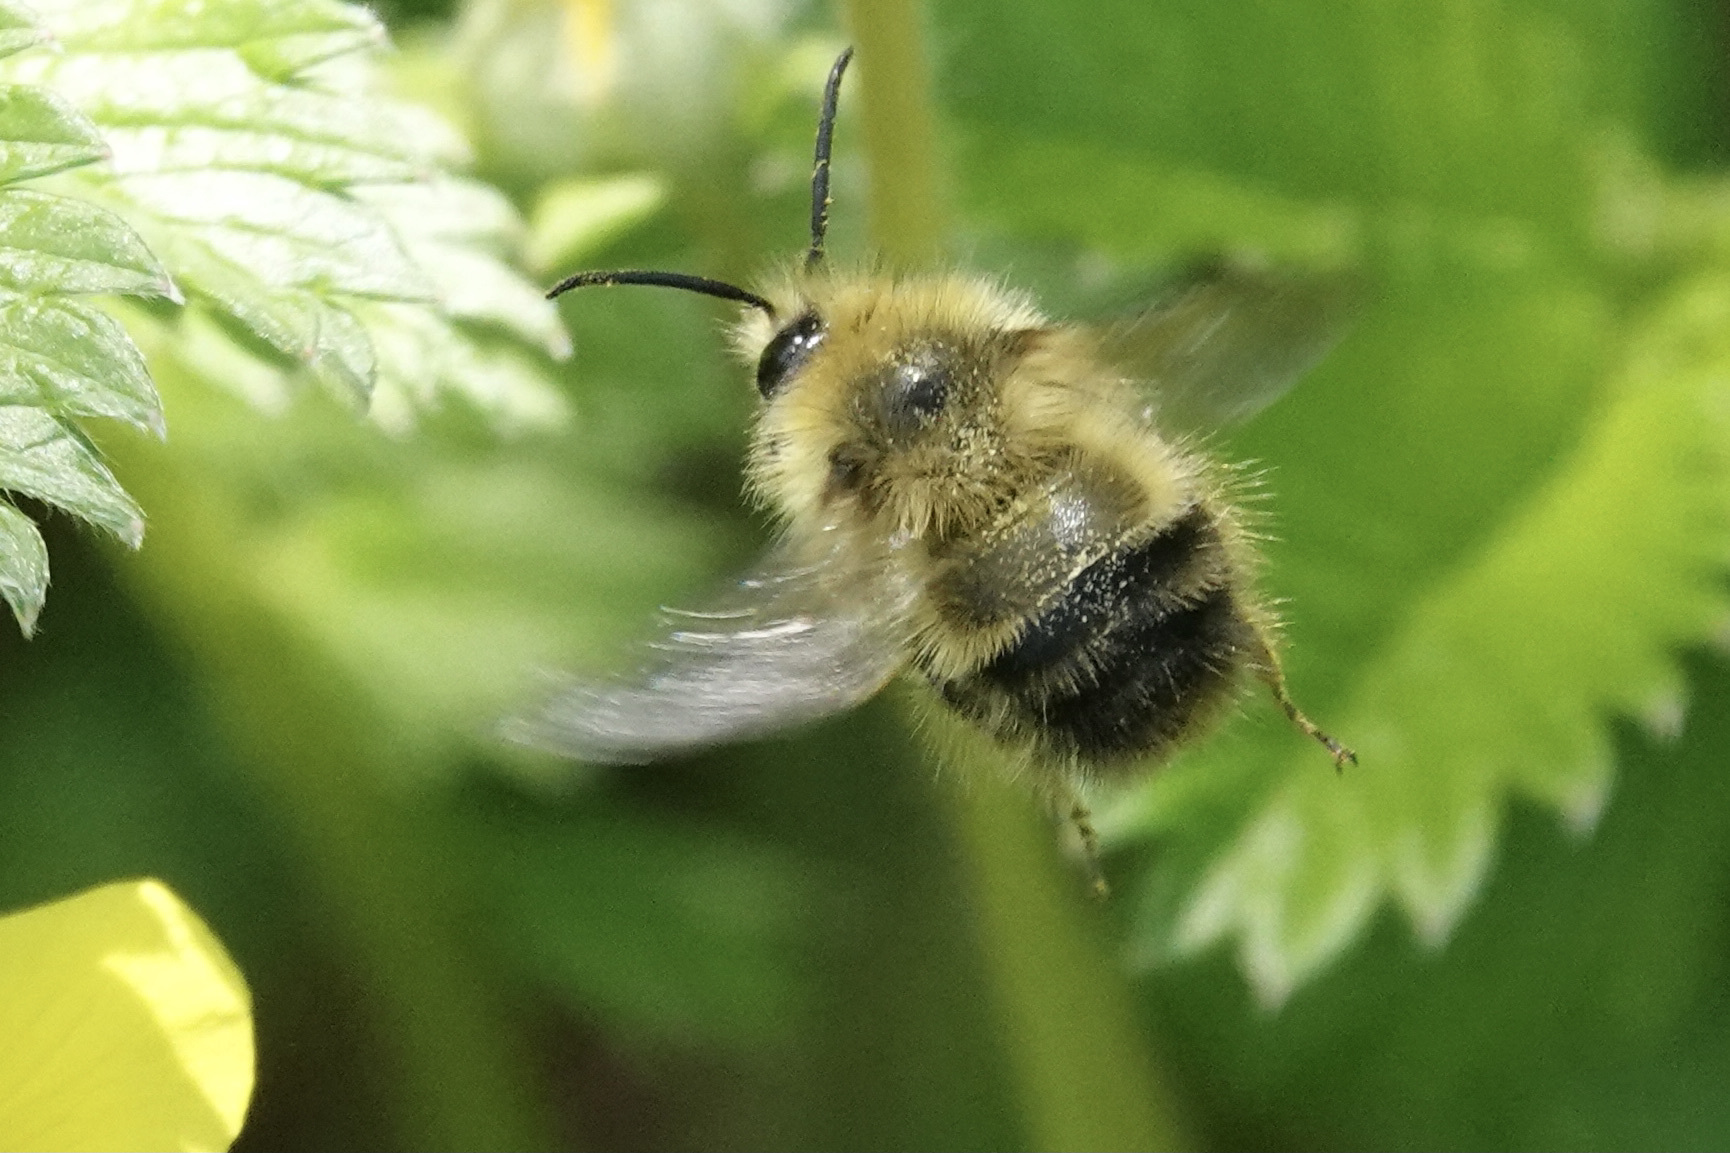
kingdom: Animalia
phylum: Arthropoda
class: Insecta
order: Hymenoptera
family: Apidae
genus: Bombus
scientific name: Bombus flavifrons
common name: Yellow head bumble bee
